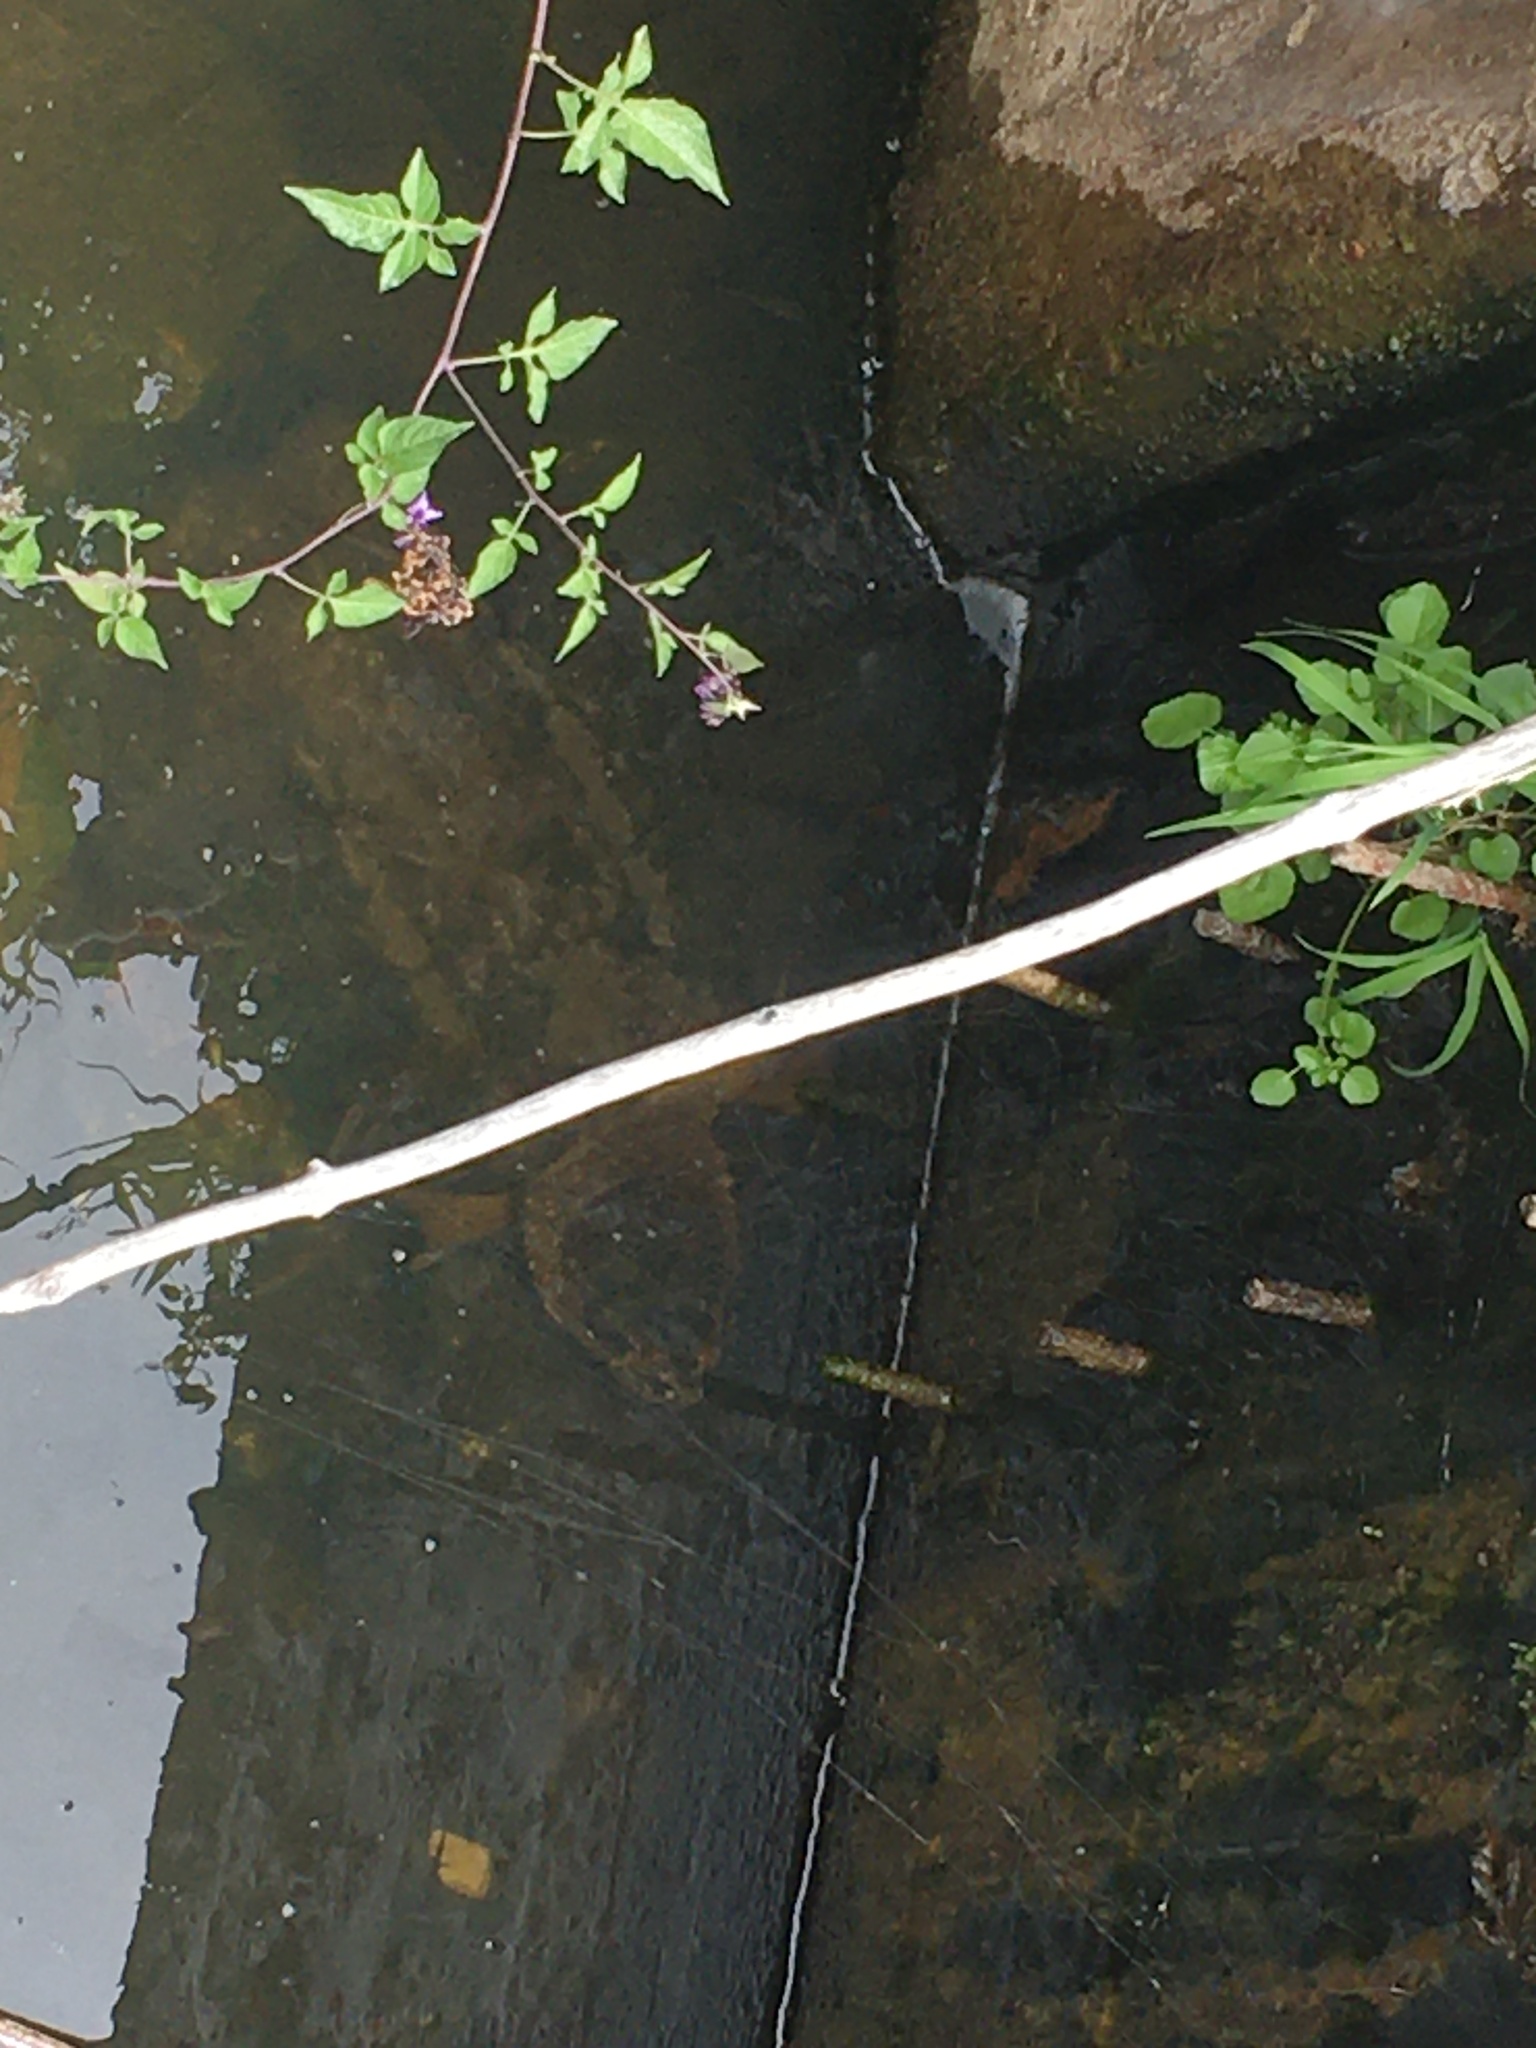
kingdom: Animalia
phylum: Chordata
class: Testudines
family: Chelydridae
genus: Chelydra
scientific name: Chelydra serpentina
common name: Common snapping turtle
